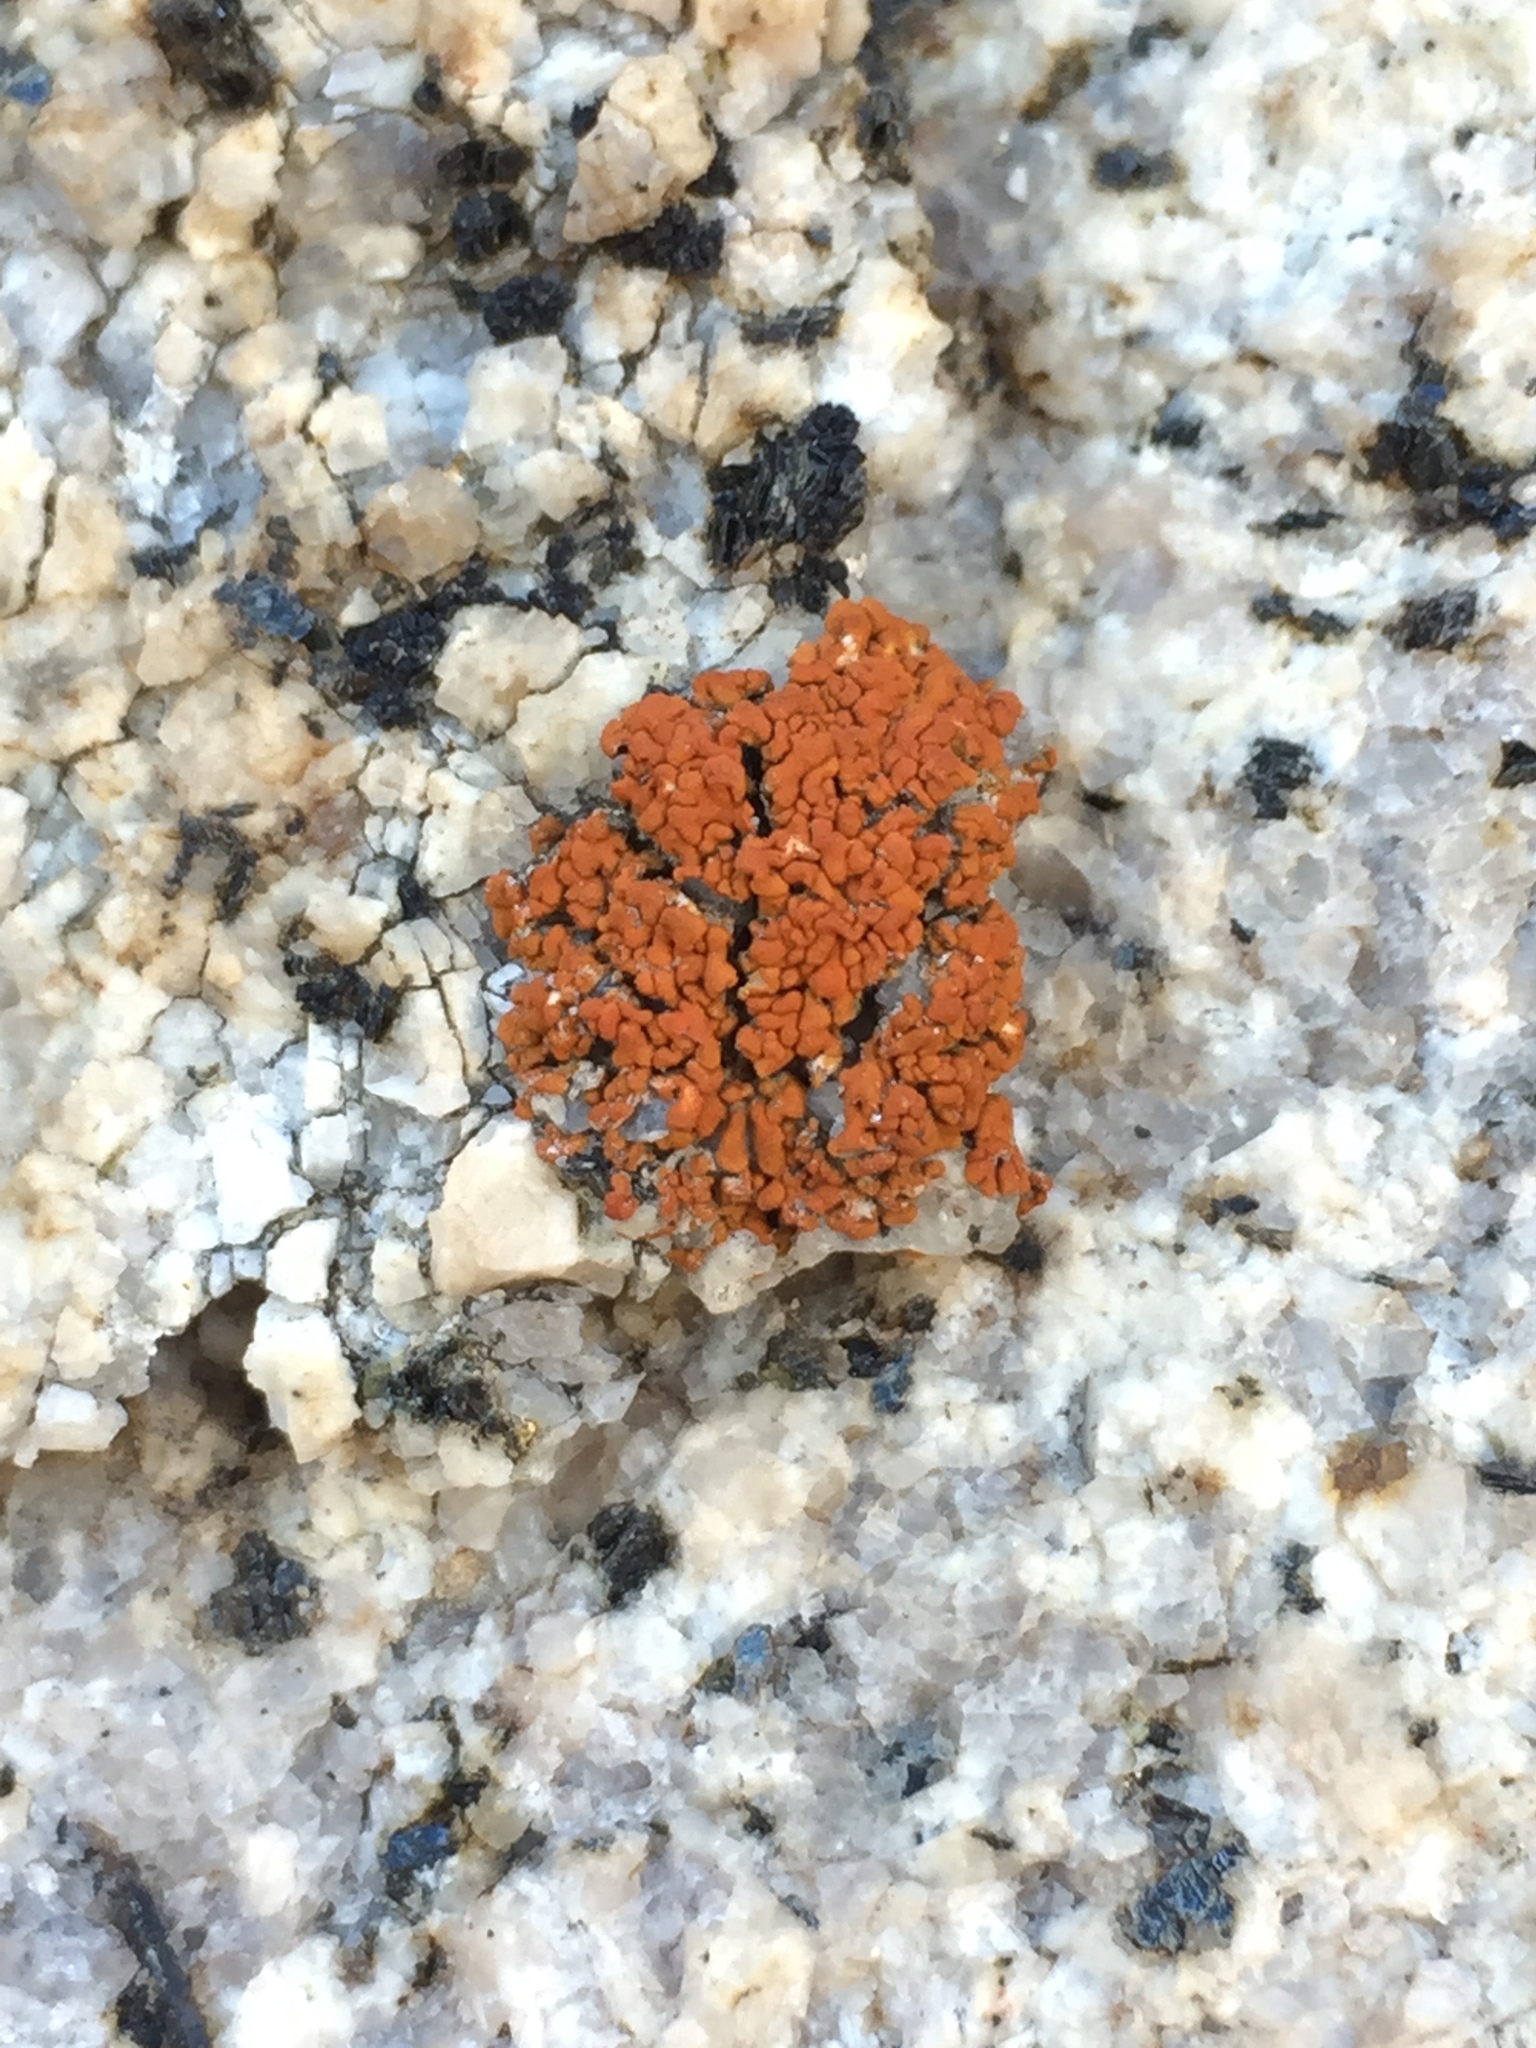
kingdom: Fungi
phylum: Ascomycota
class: Lecanoromycetes
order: Teloschistales
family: Teloschistaceae
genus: Xanthoria
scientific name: Xanthoria elegans
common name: Elegant sunburst lichen
